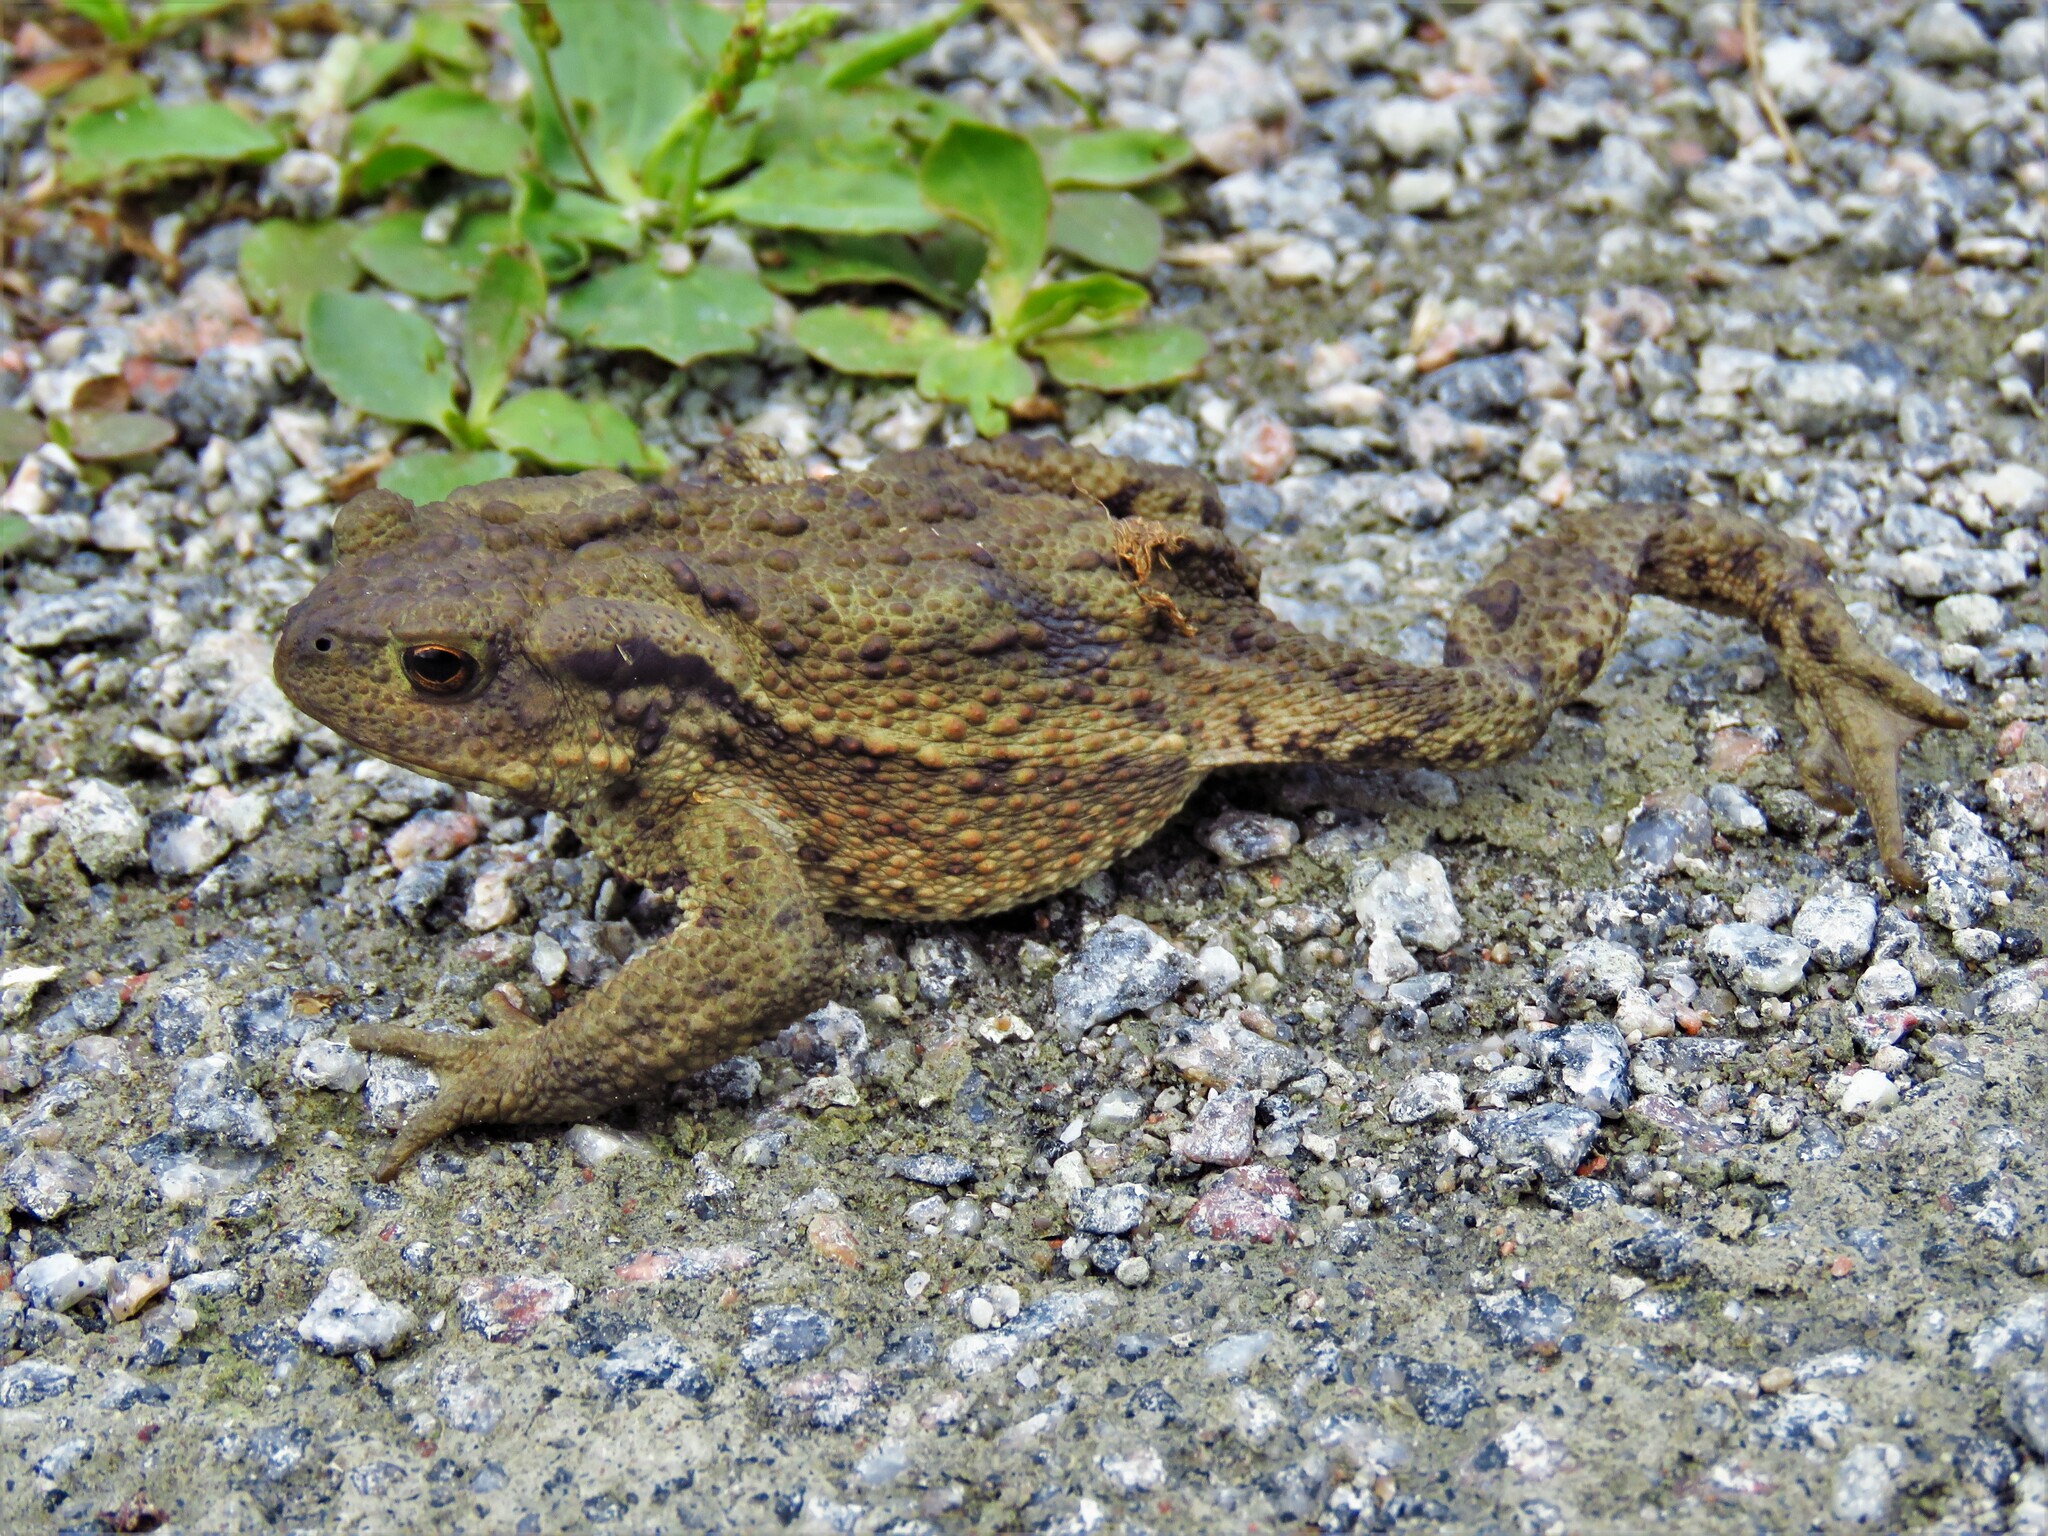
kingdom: Animalia
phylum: Chordata
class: Amphibia
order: Anura
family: Bufonidae
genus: Bufo
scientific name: Bufo bufo
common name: Common toad
